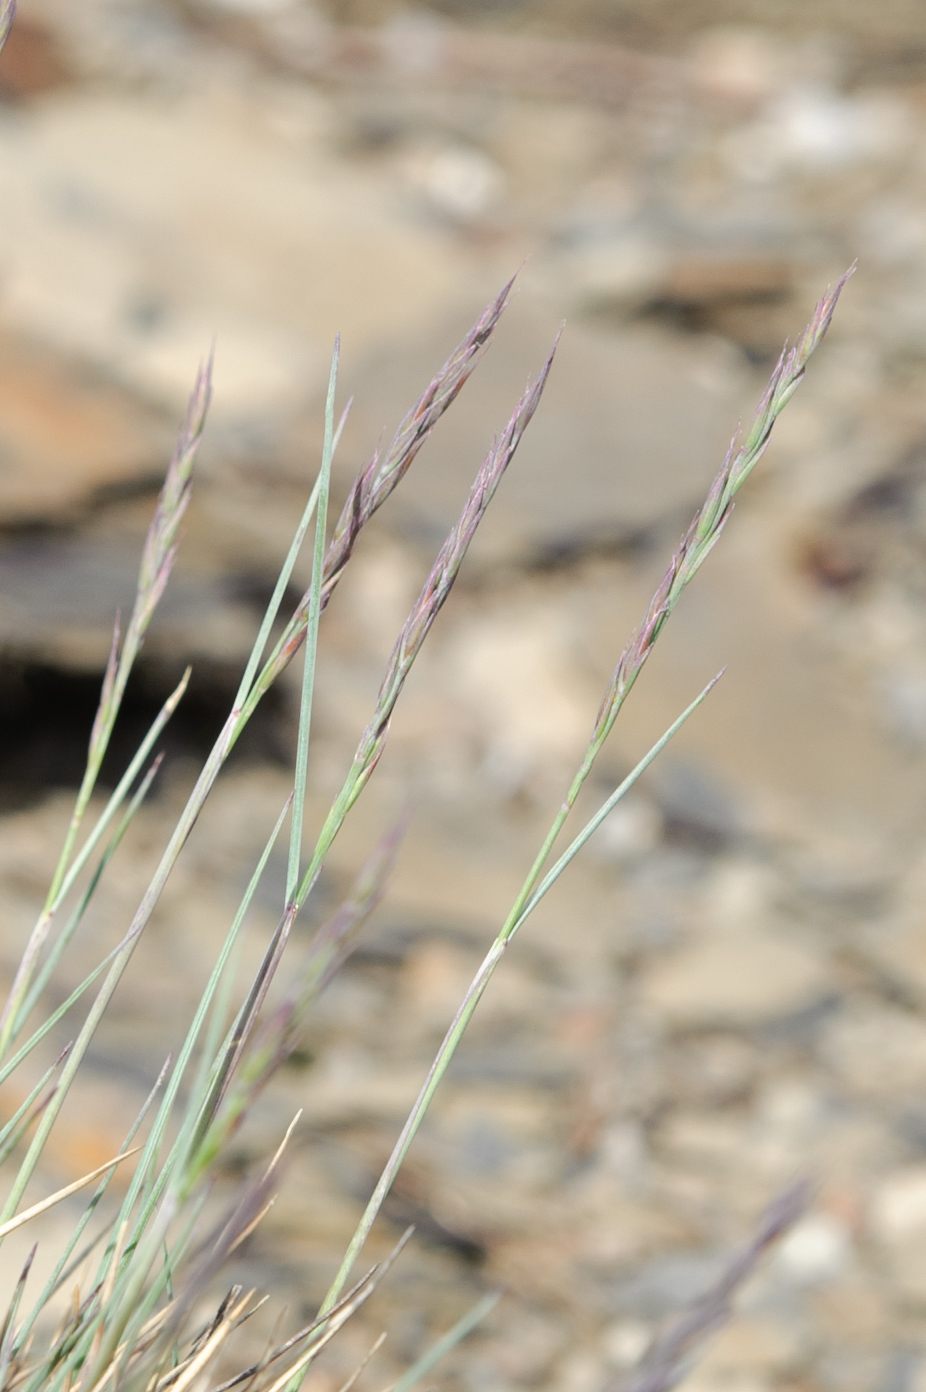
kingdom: Plantae
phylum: Tracheophyta
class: Liliopsida
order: Poales
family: Poaceae
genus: Festuca
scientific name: Festuca ovina
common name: Sheep fescue
